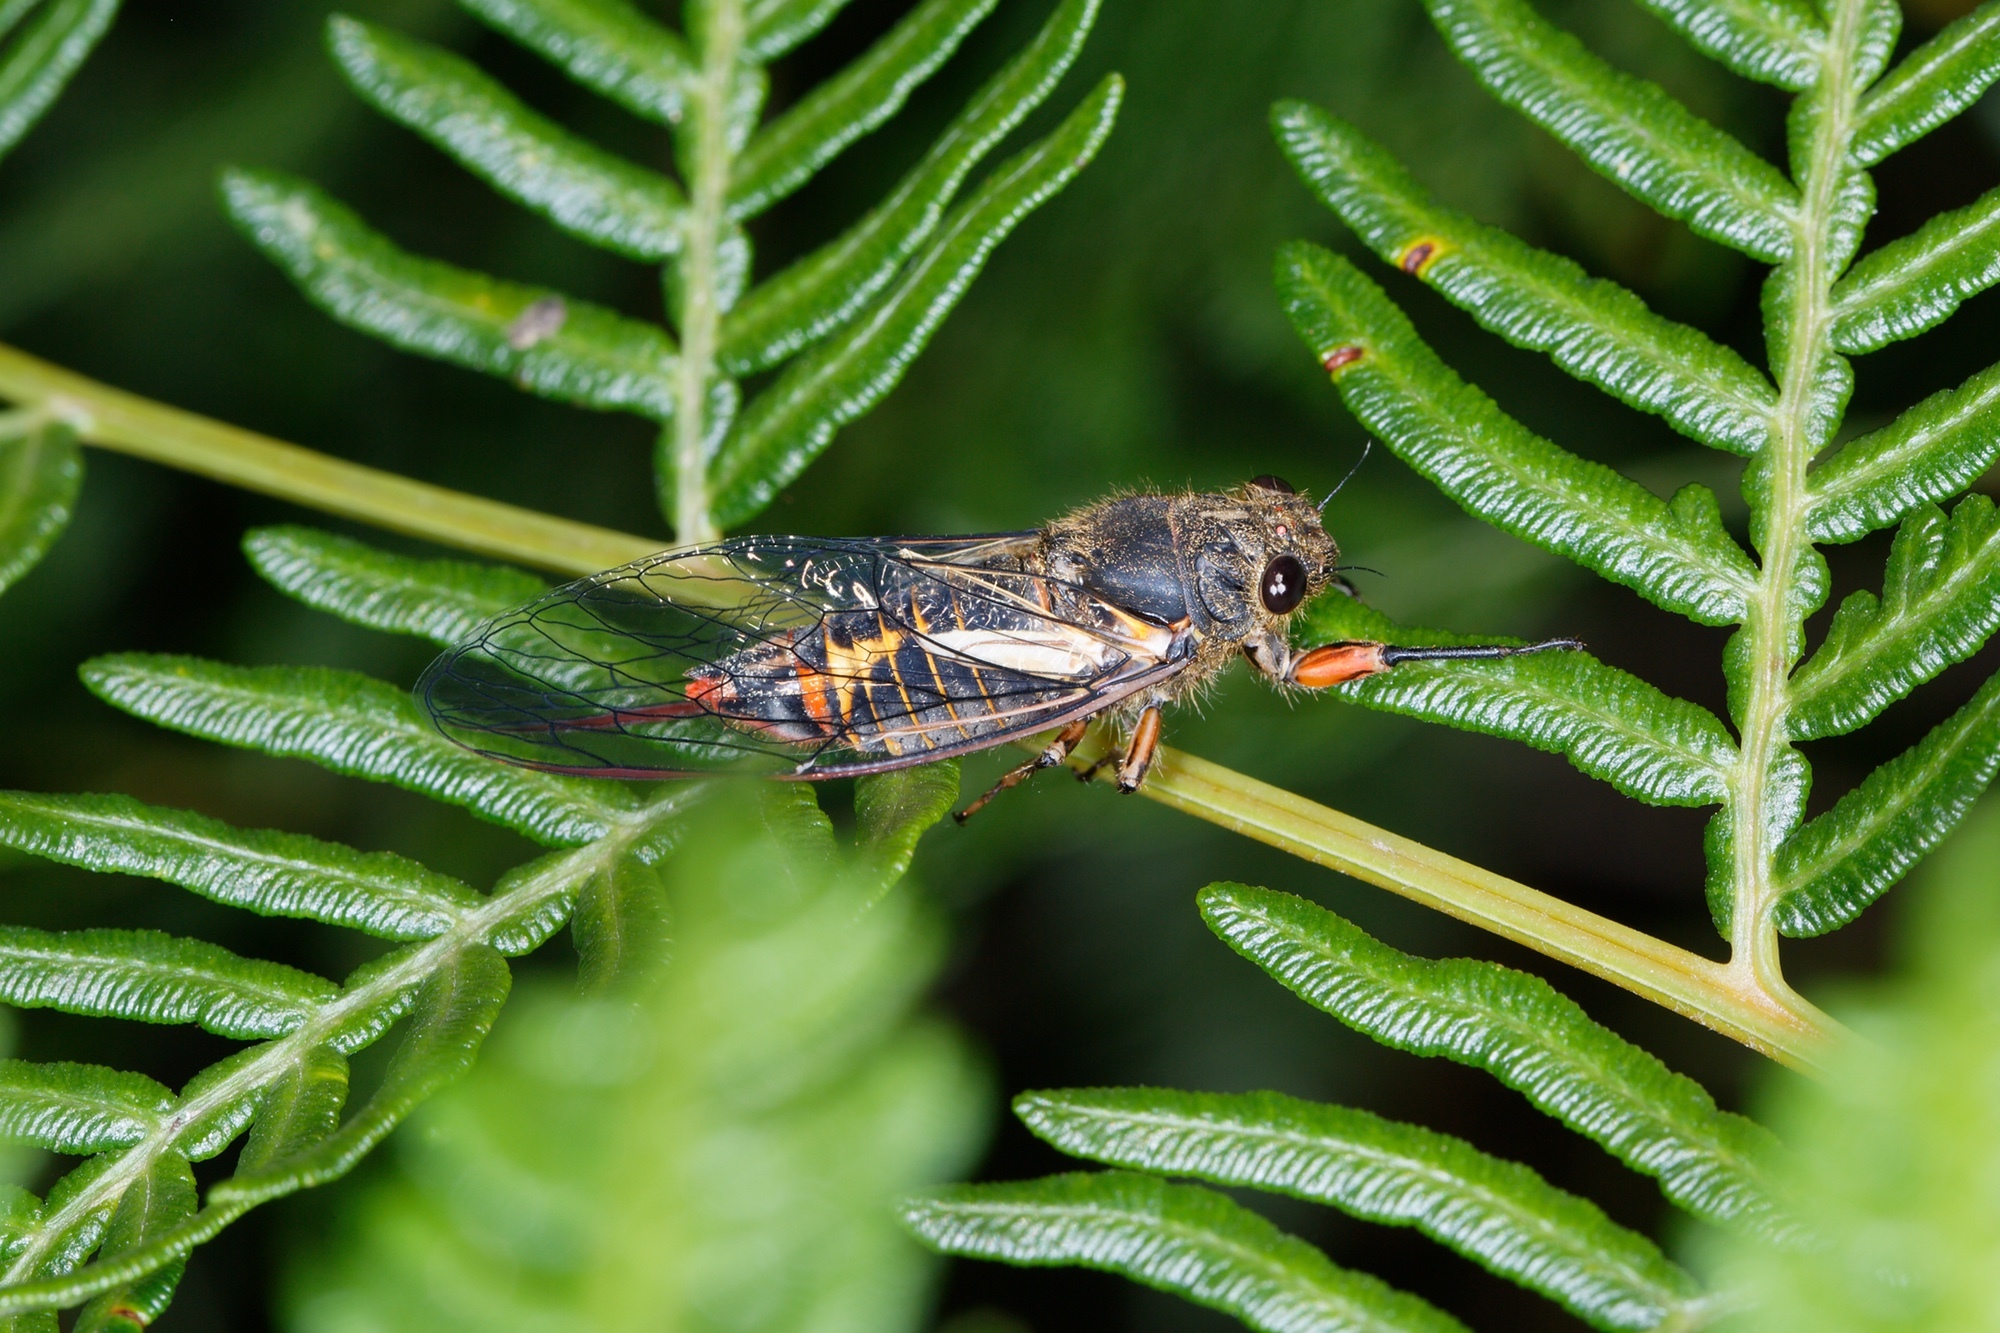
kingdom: Animalia
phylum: Arthropoda
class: Insecta
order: Hemiptera
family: Cicadidae
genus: Yoyetta
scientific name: Yoyetta abdominalis
